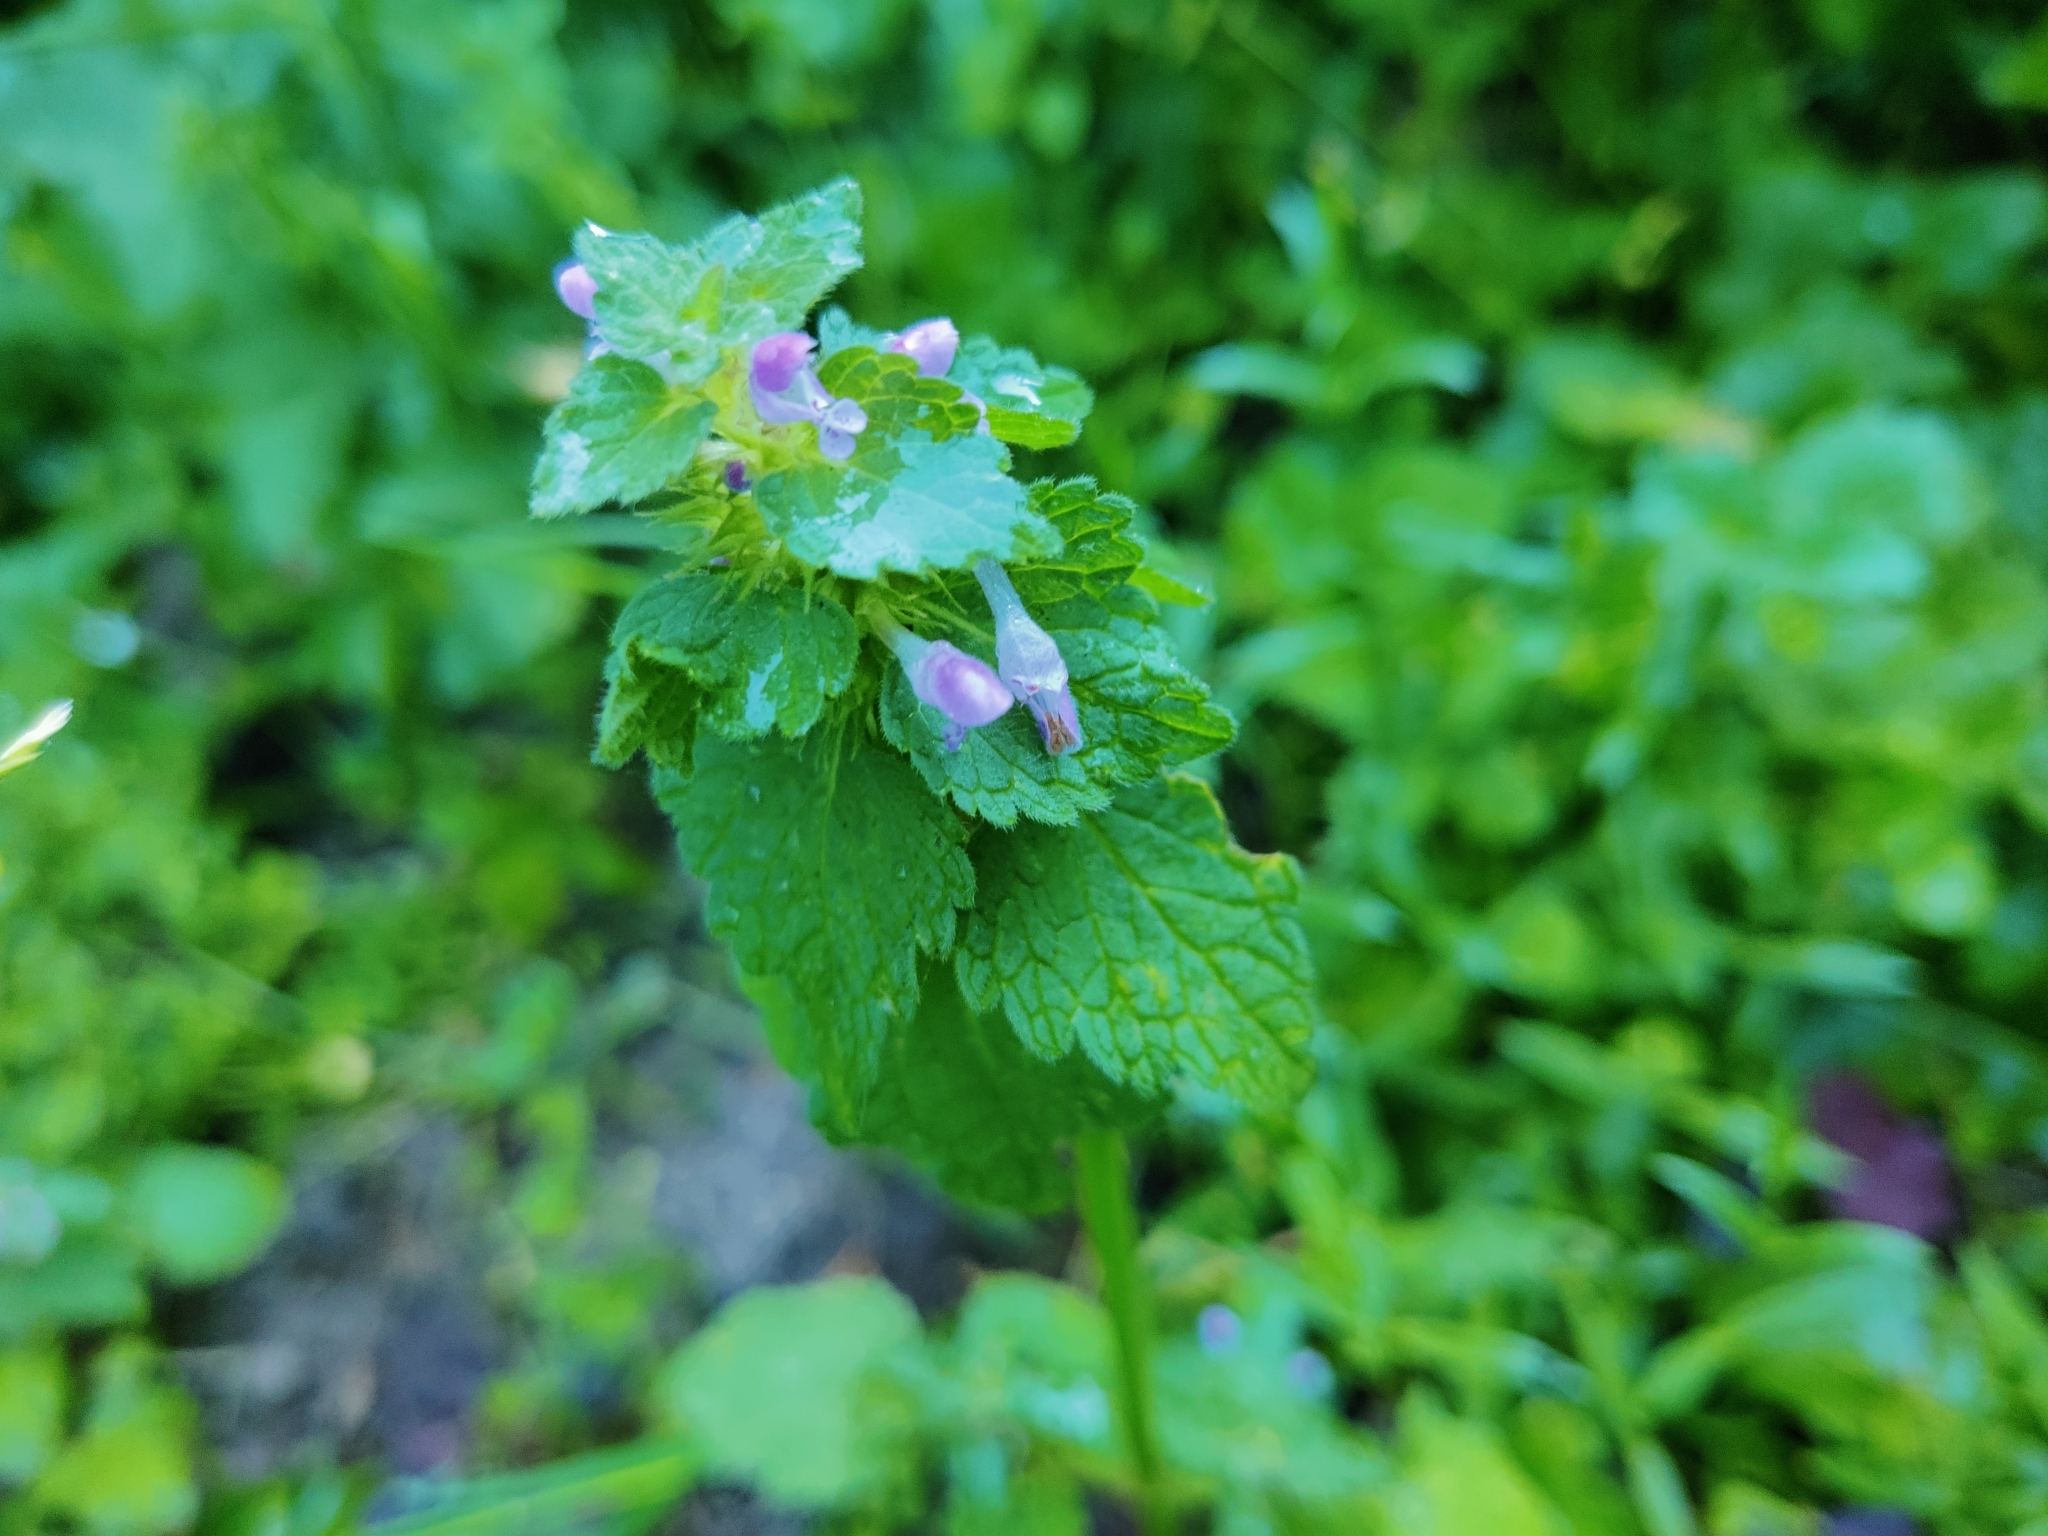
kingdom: Plantae
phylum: Tracheophyta
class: Magnoliopsida
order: Lamiales
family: Lamiaceae
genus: Lamium
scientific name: Lamium purpureum
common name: Red dead-nettle
